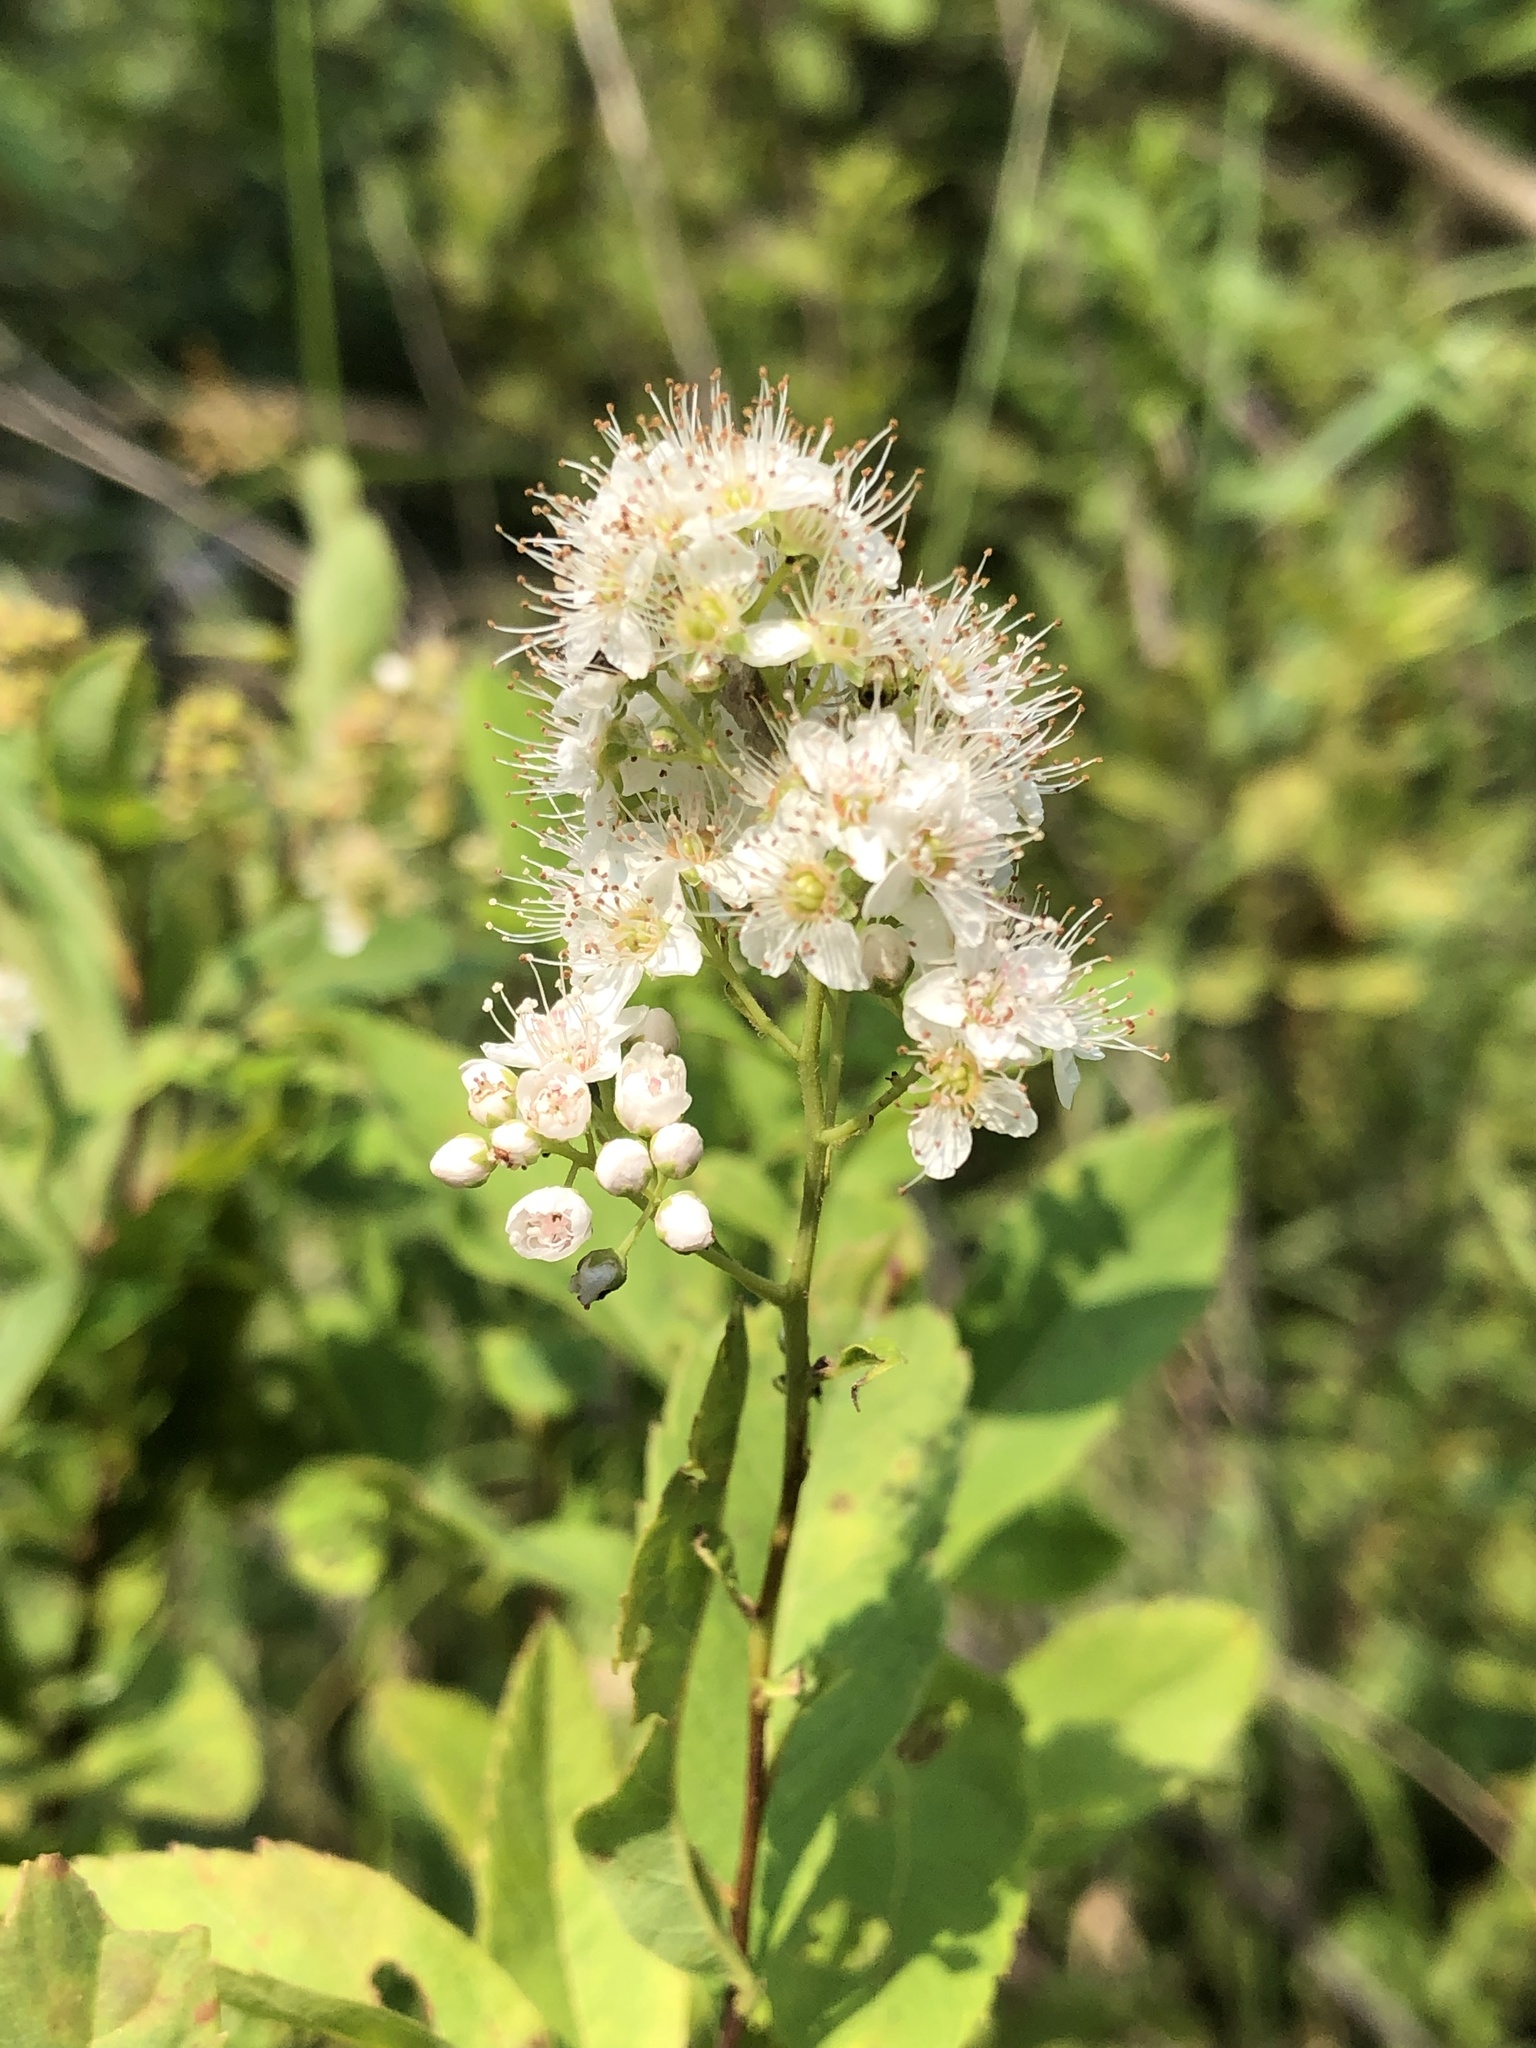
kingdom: Plantae
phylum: Tracheophyta
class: Magnoliopsida
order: Rosales
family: Rosaceae
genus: Spiraea
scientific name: Spiraea alba
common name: Pale bridewort
